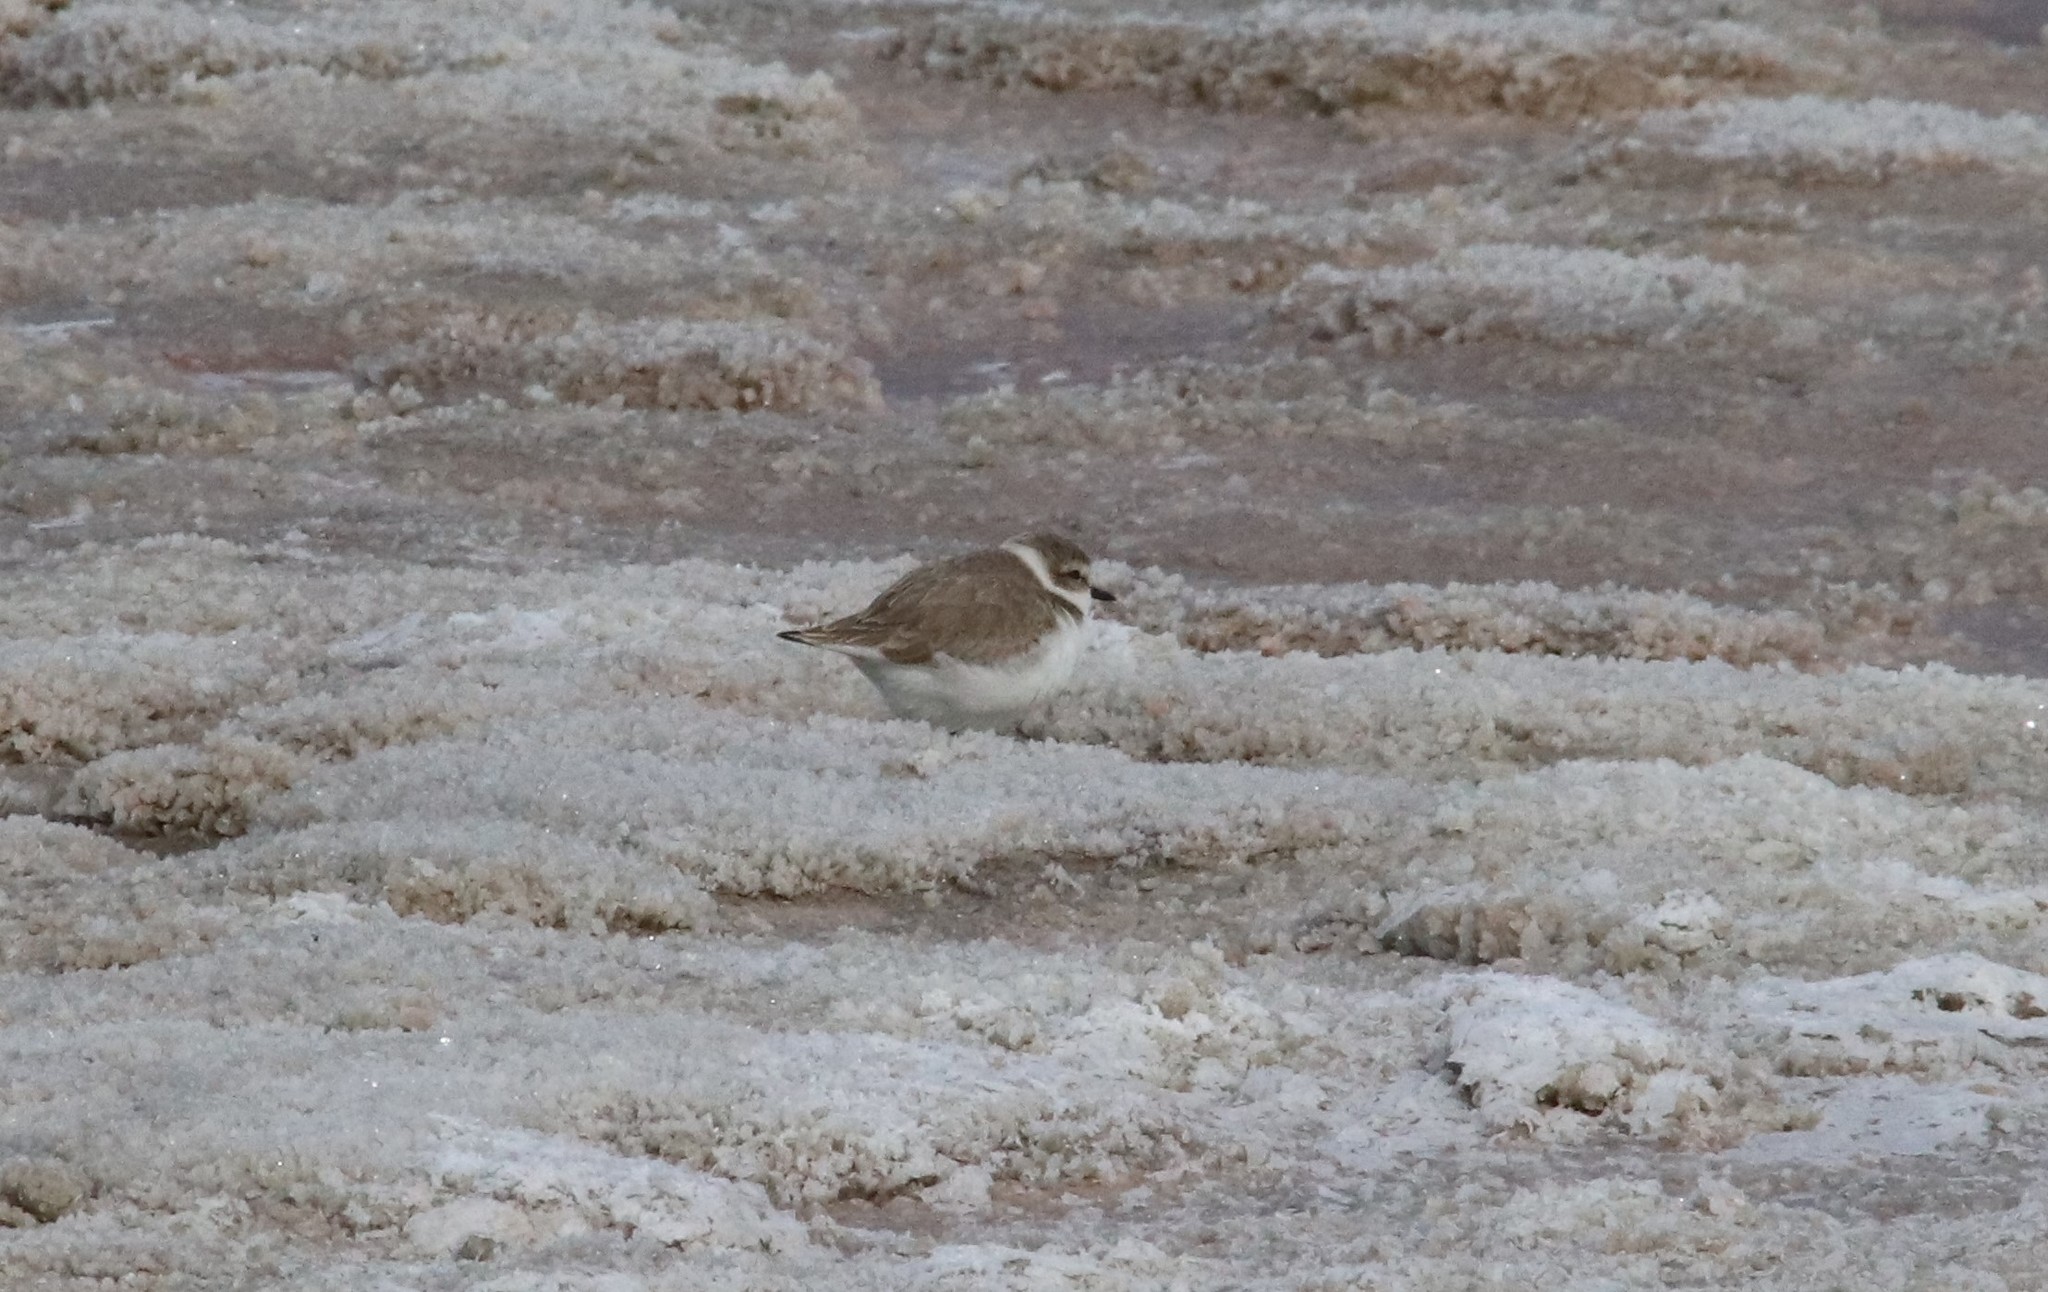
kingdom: Animalia
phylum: Chordata
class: Aves
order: Charadriiformes
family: Charadriidae
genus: Anarhynchus
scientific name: Anarhynchus
